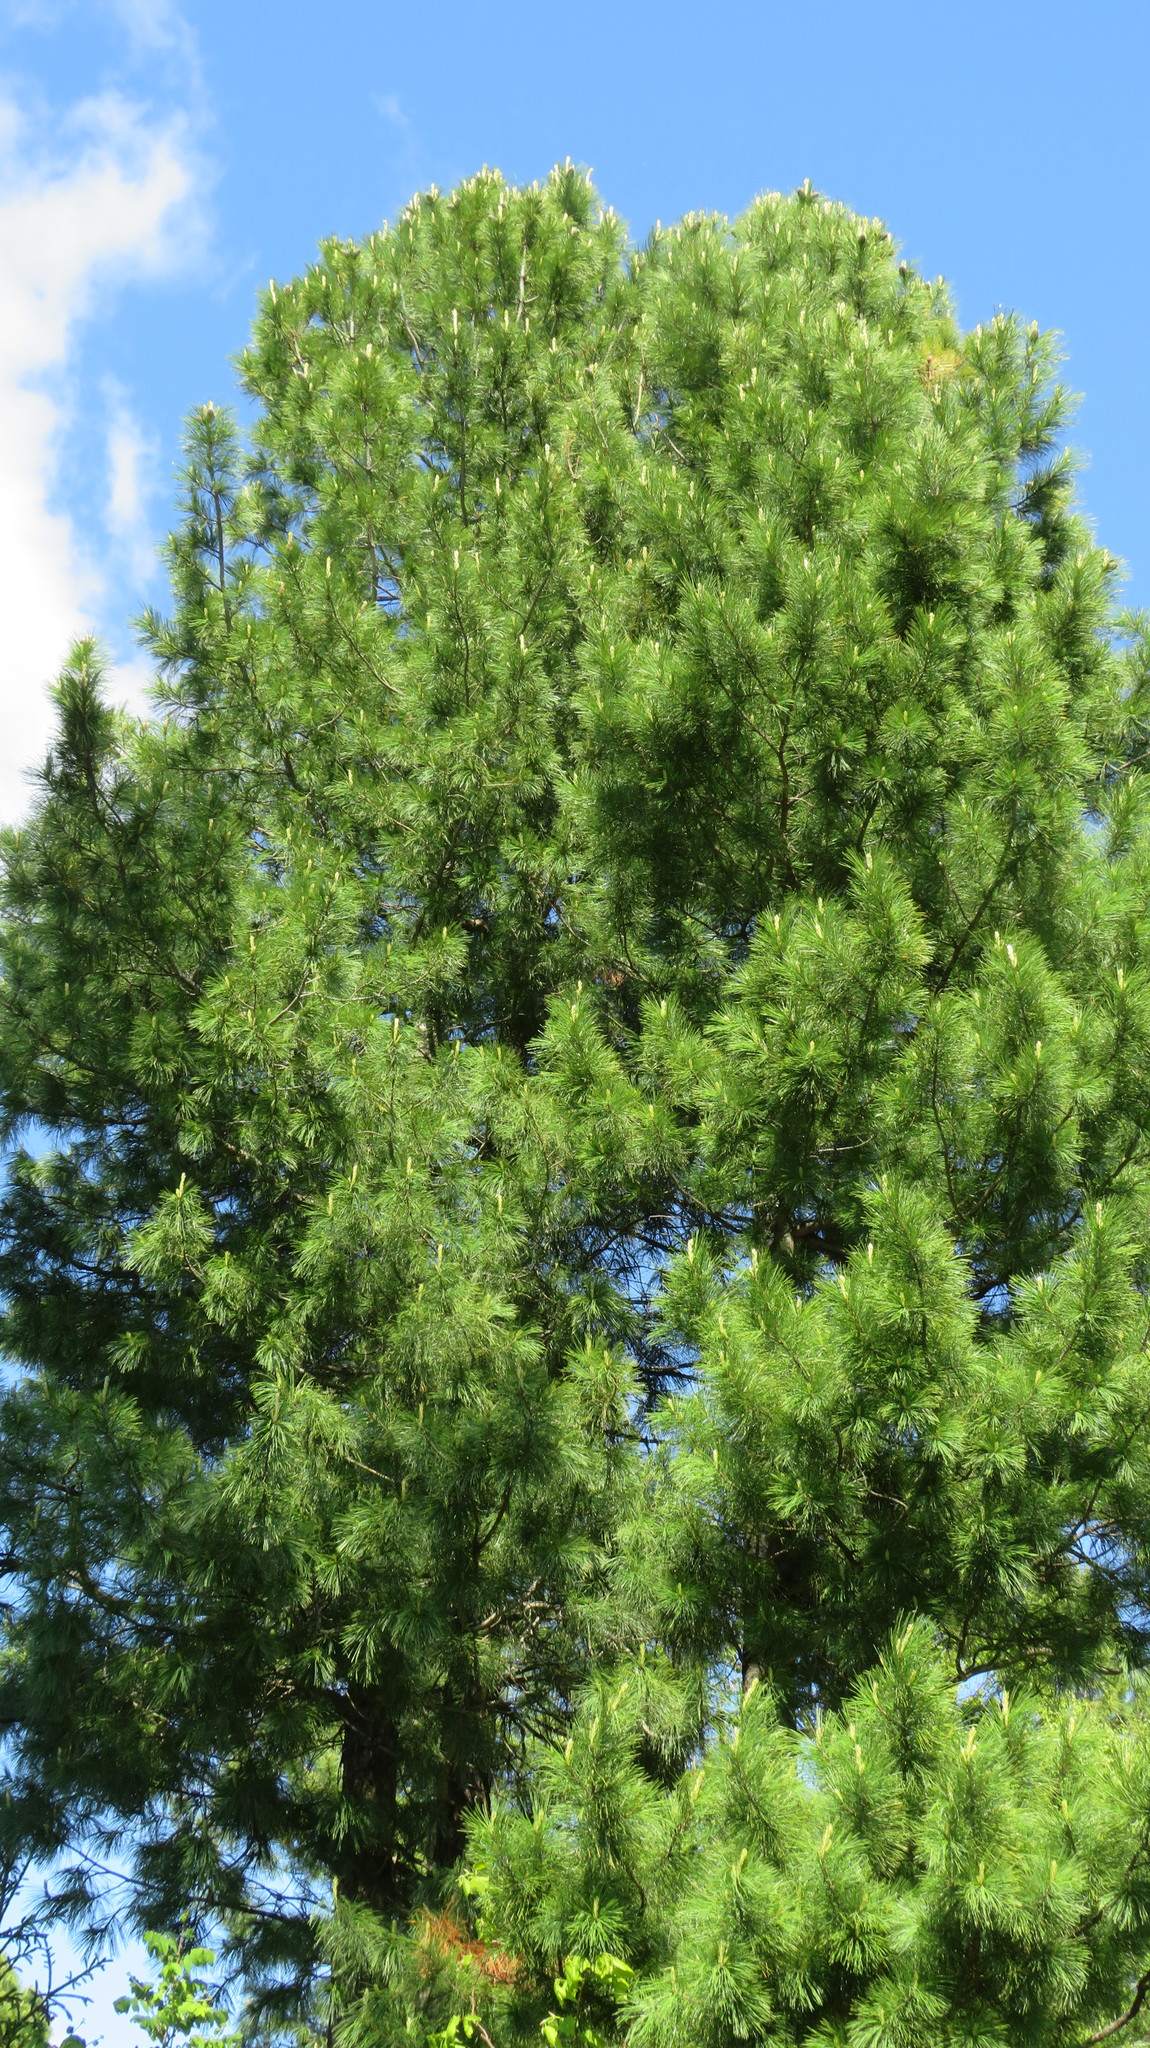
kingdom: Plantae
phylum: Tracheophyta
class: Pinopsida
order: Pinales
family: Pinaceae
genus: Pinus
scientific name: Pinus sibirica
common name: Siberian pine
